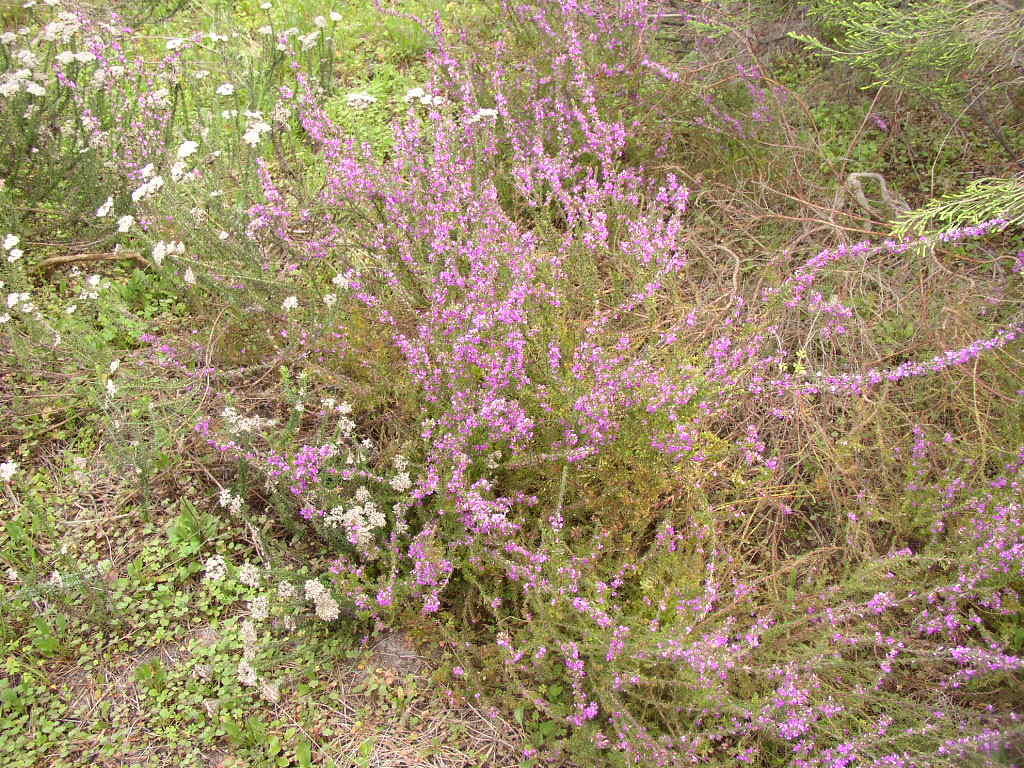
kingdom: Plantae
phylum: Tracheophyta
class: Magnoliopsida
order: Fabales
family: Polygalaceae
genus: Muraltia
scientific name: Muraltia heisteria
